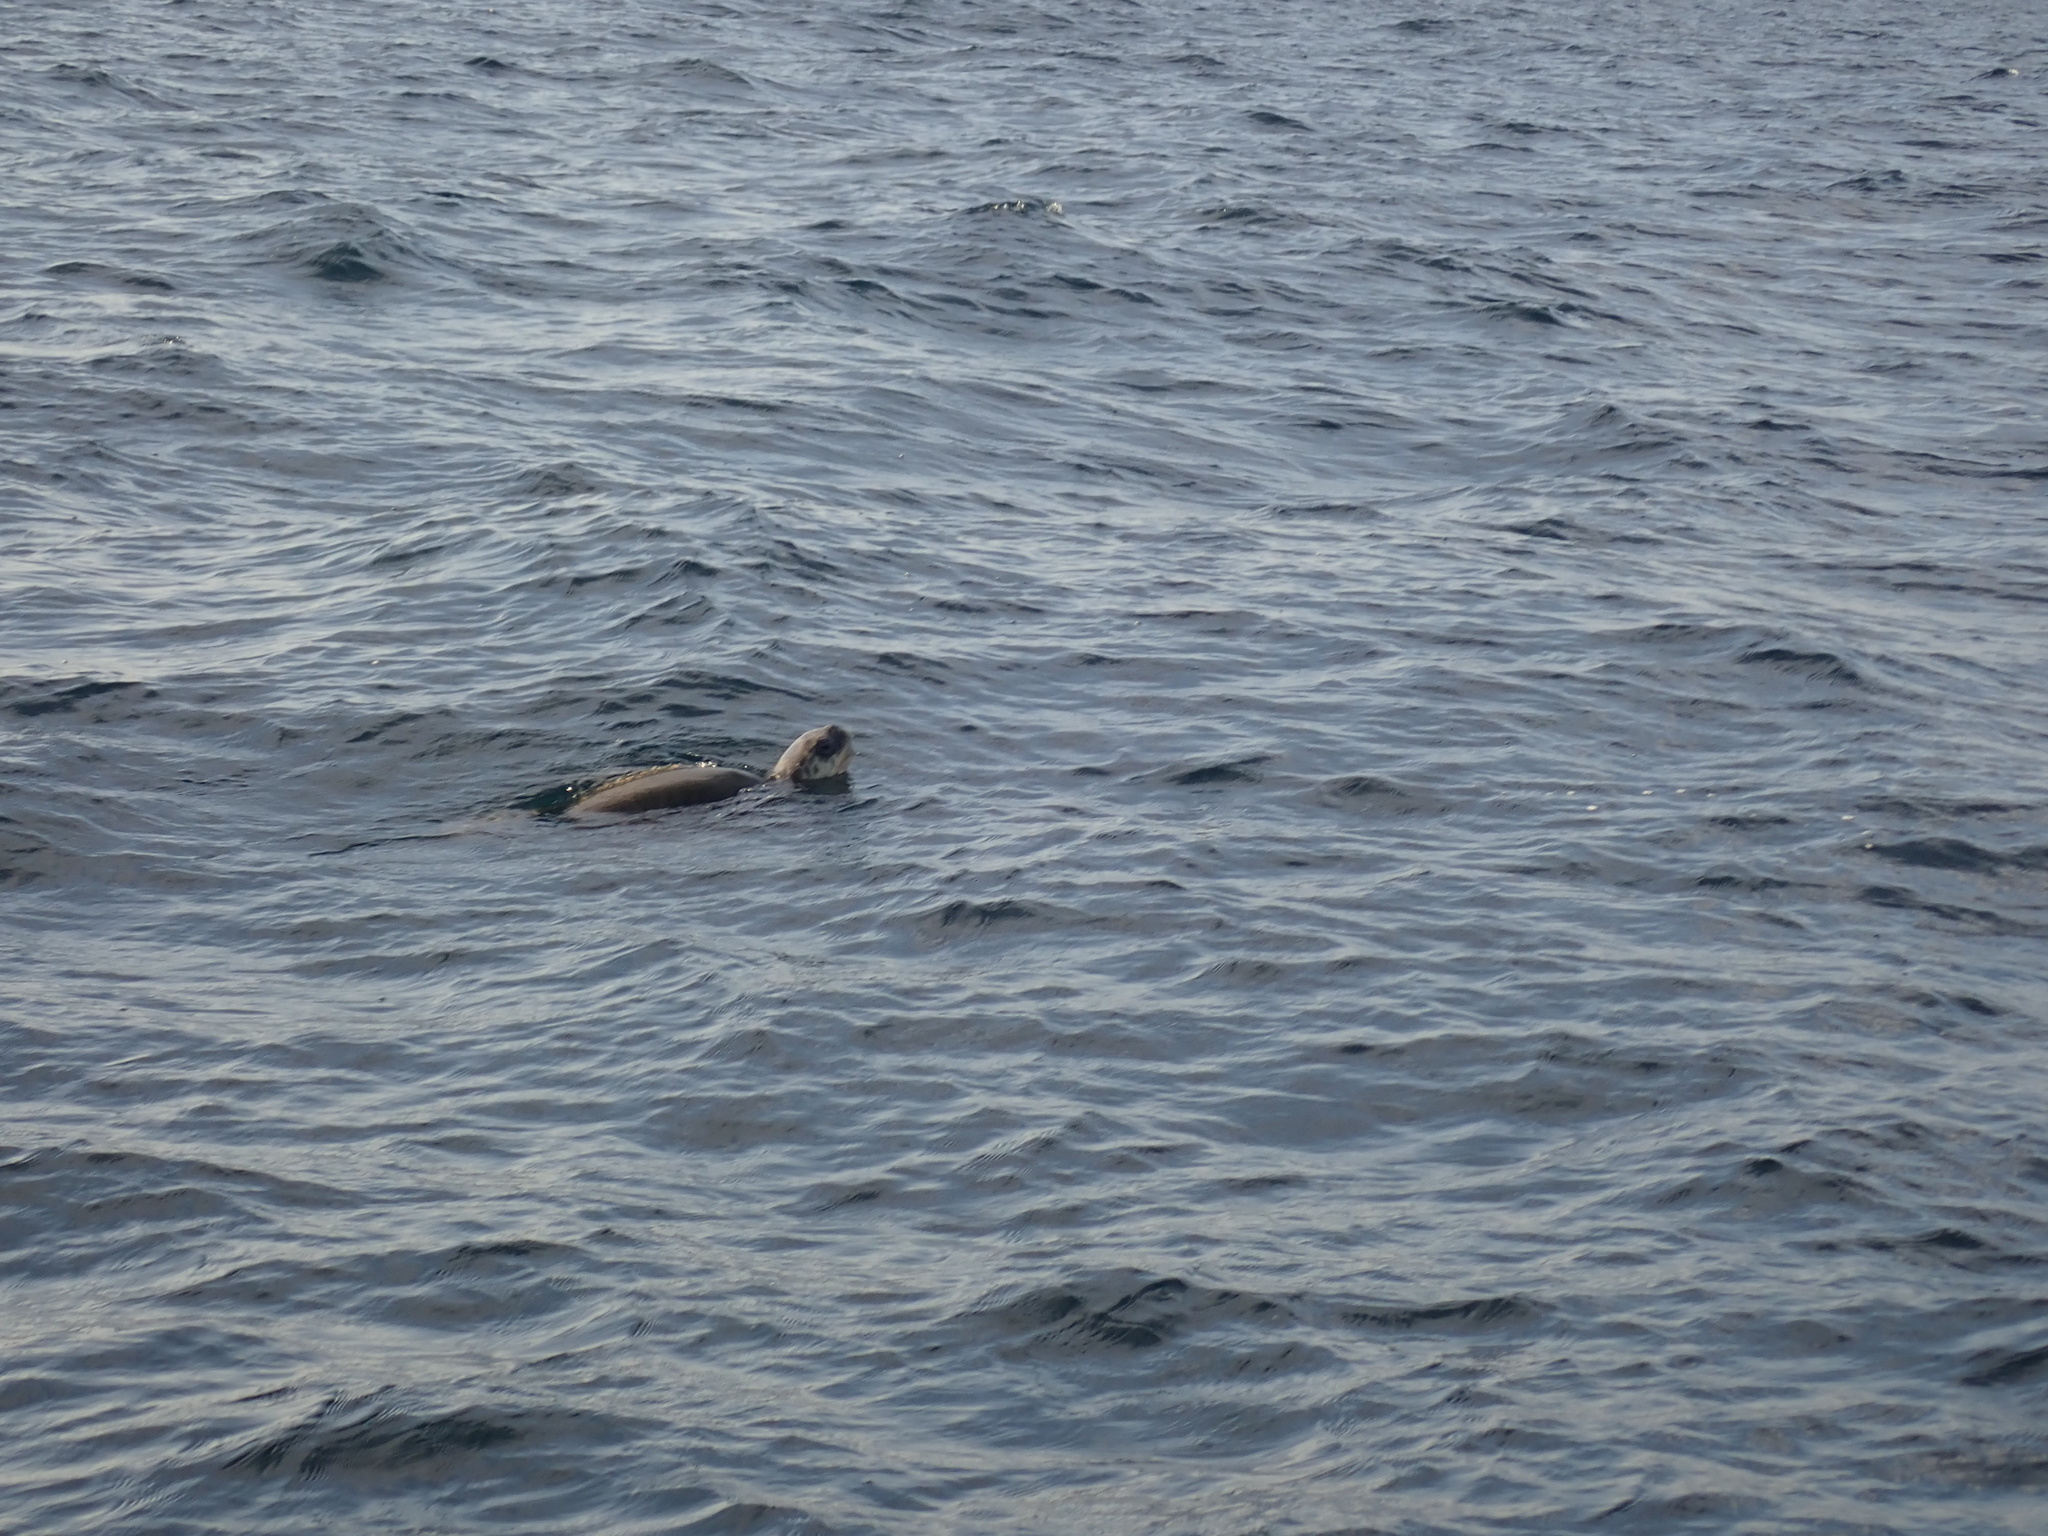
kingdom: Animalia
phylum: Chordata
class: Testudines
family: Cheloniidae
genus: Lepidochelys
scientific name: Lepidochelys olivacea
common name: Olive ridley
